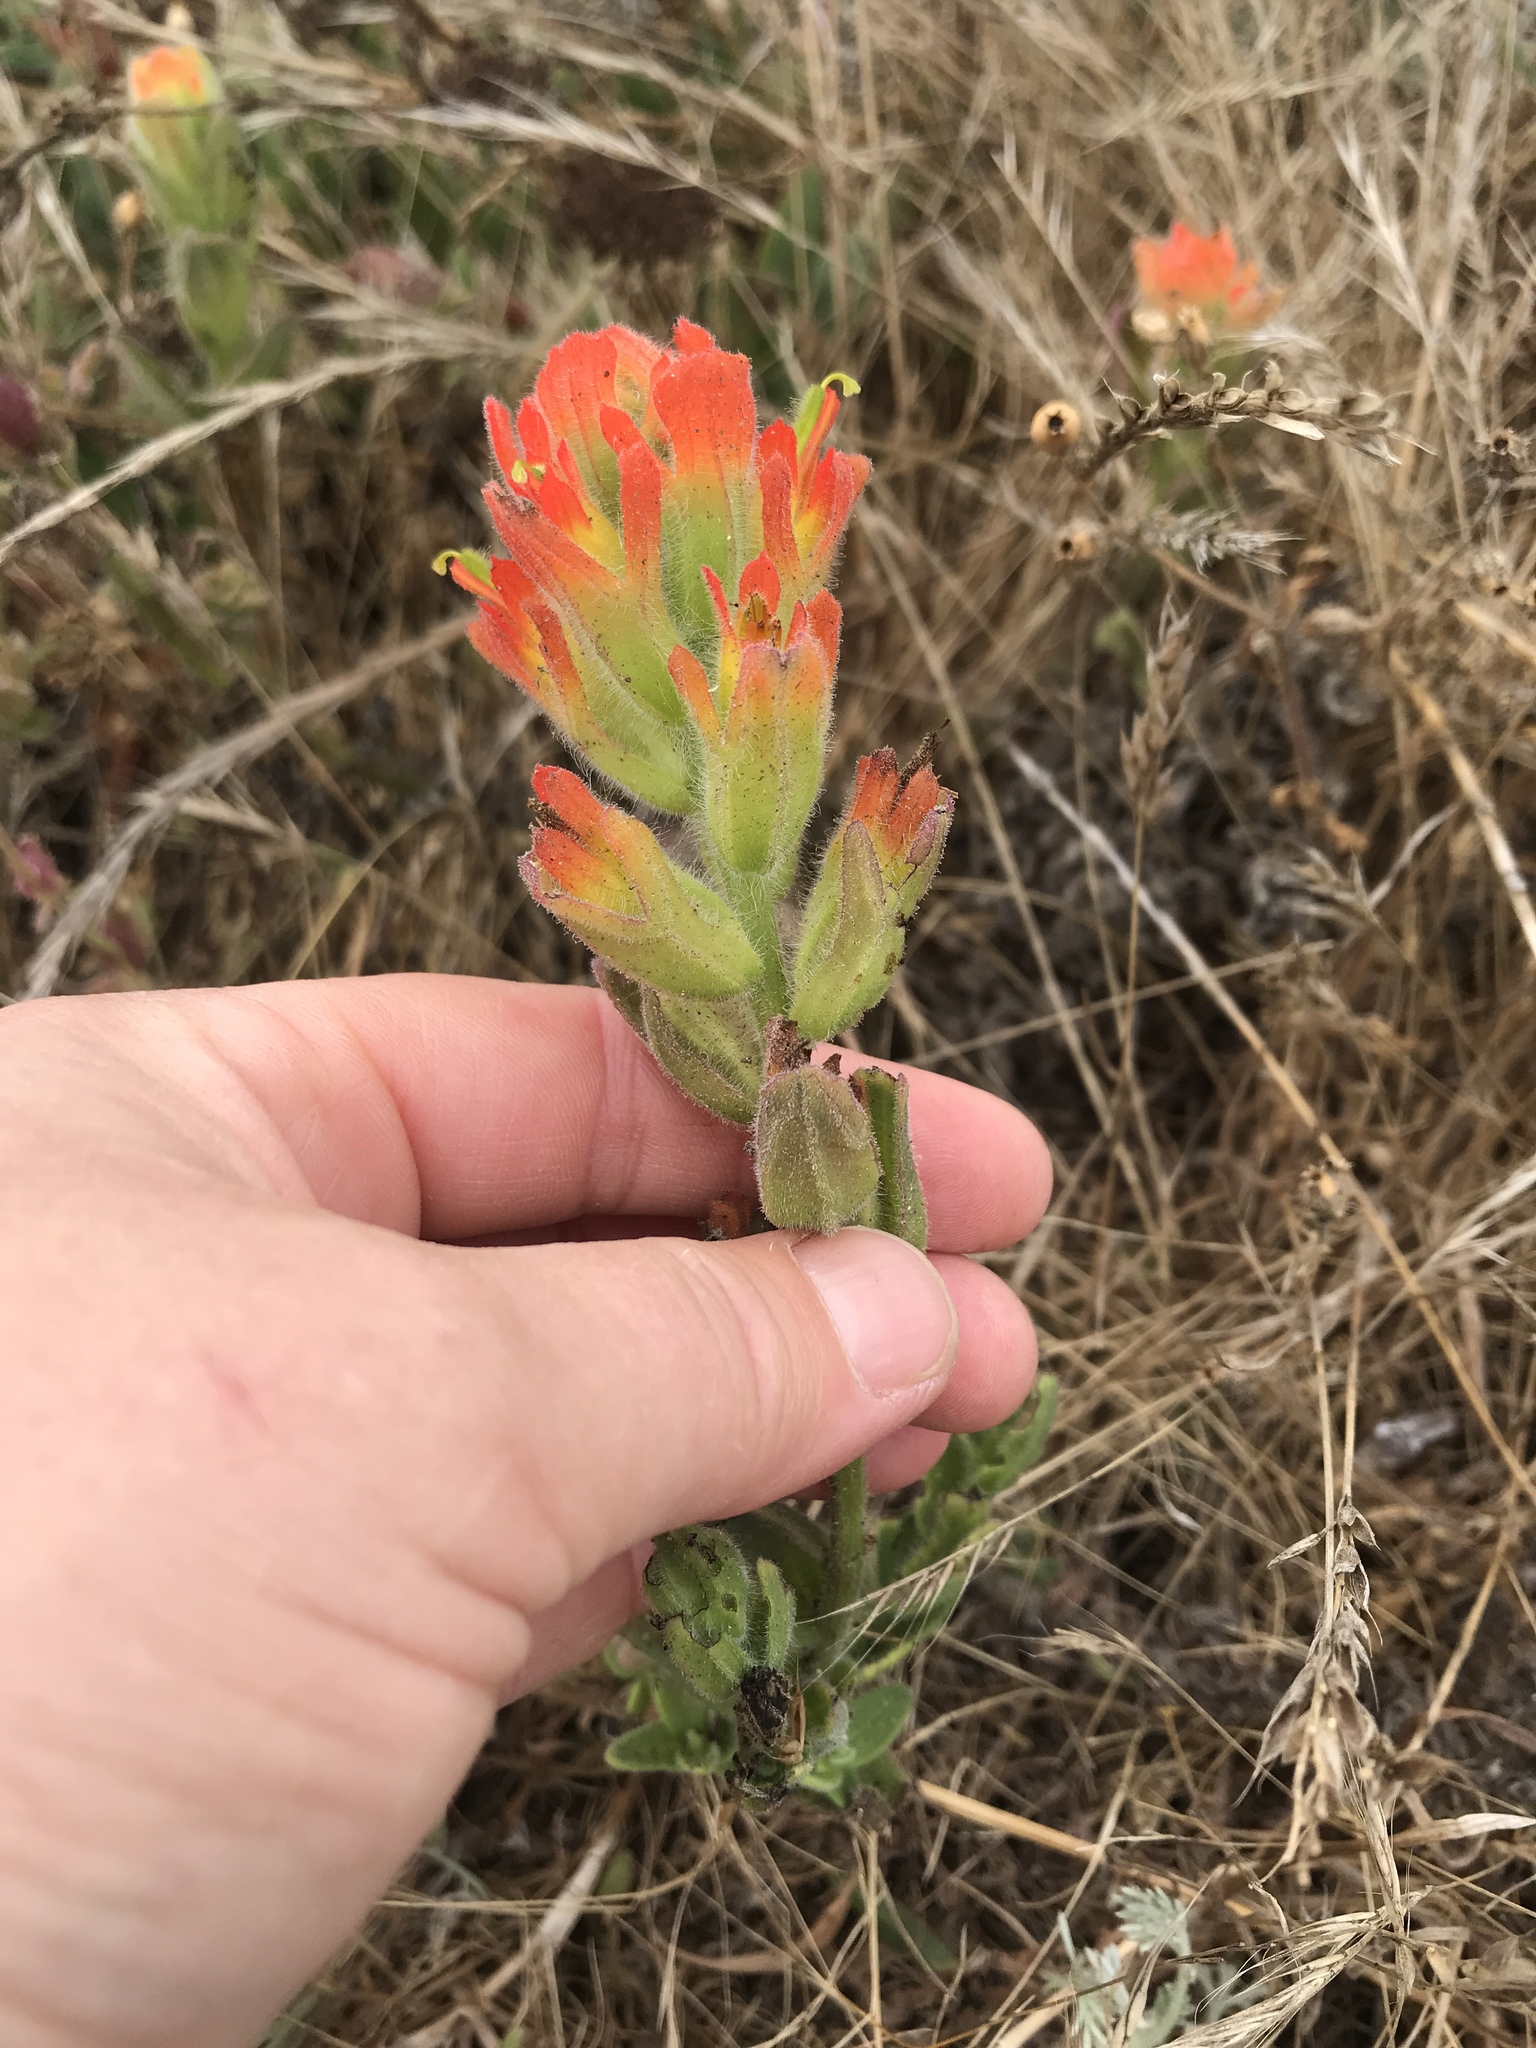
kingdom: Plantae
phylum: Tracheophyta
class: Magnoliopsida
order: Lamiales
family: Orobanchaceae
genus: Castilleja
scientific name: Castilleja wightii
